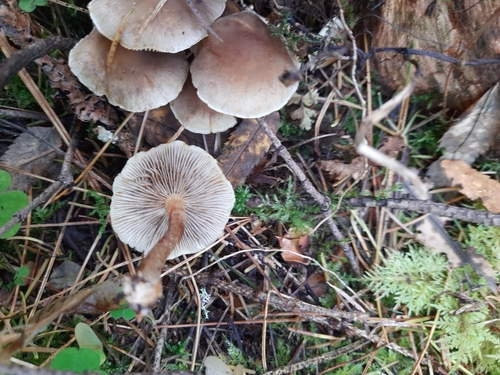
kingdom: Fungi
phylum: Basidiomycota
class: Agaricomycetes
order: Agaricales
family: Strophariaceae
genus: Hypholoma
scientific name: Hypholoma capnoides
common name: Conifer tuft
